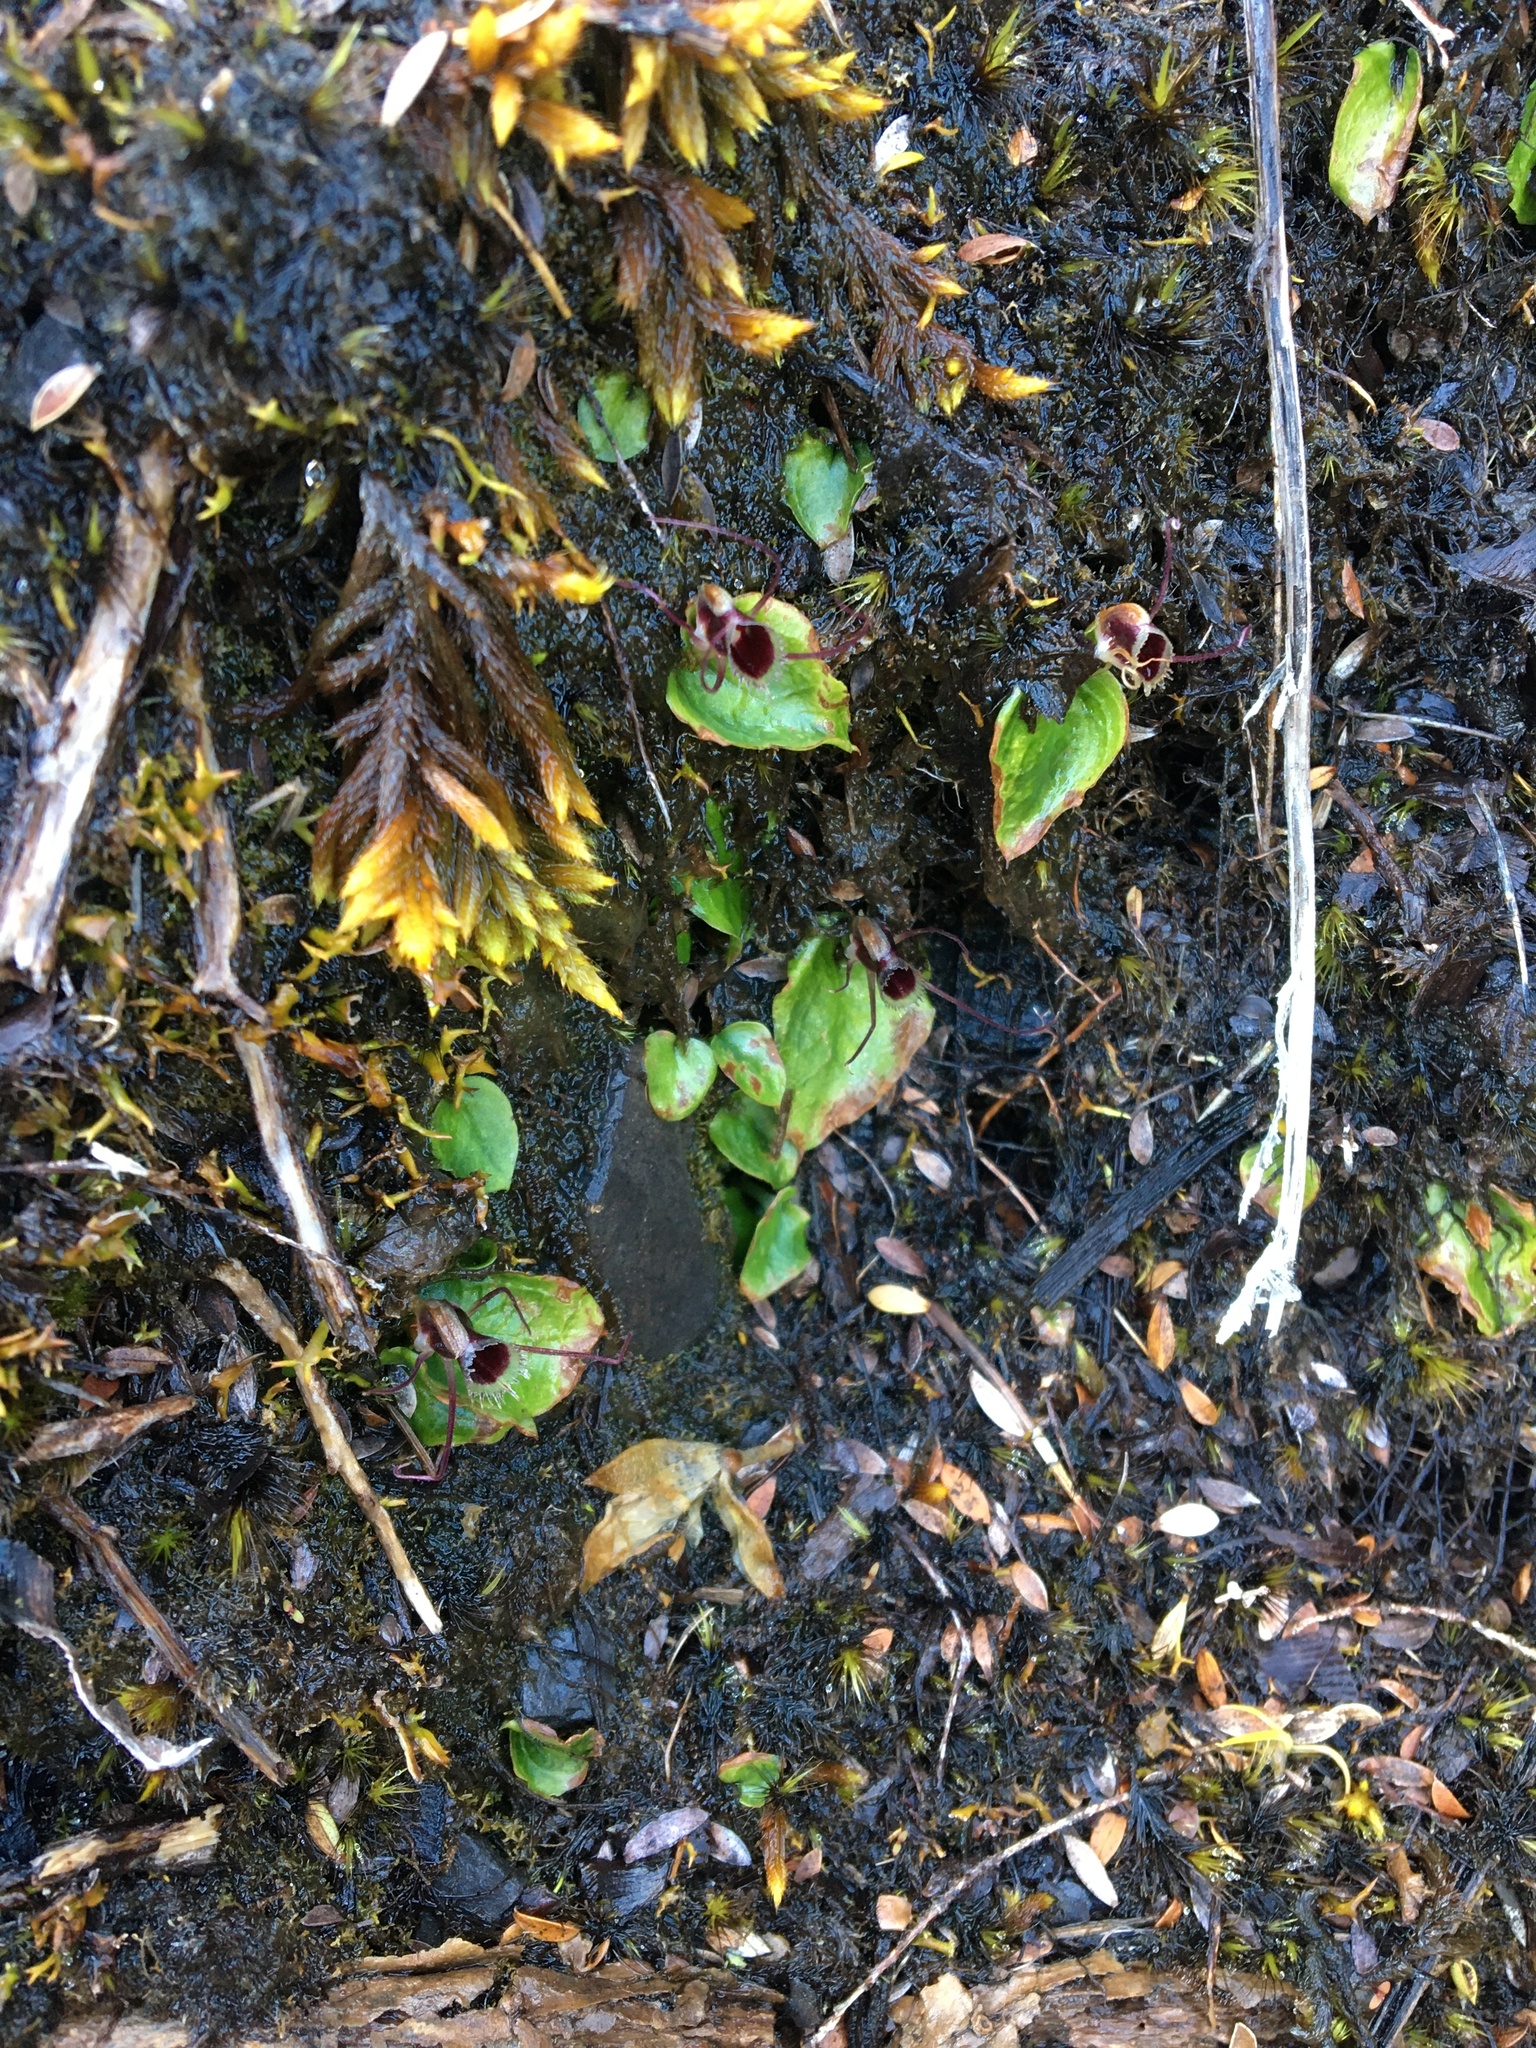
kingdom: Plantae
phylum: Tracheophyta
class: Liliopsida
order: Asparagales
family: Orchidaceae
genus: Corybas
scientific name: Corybas oblongus
